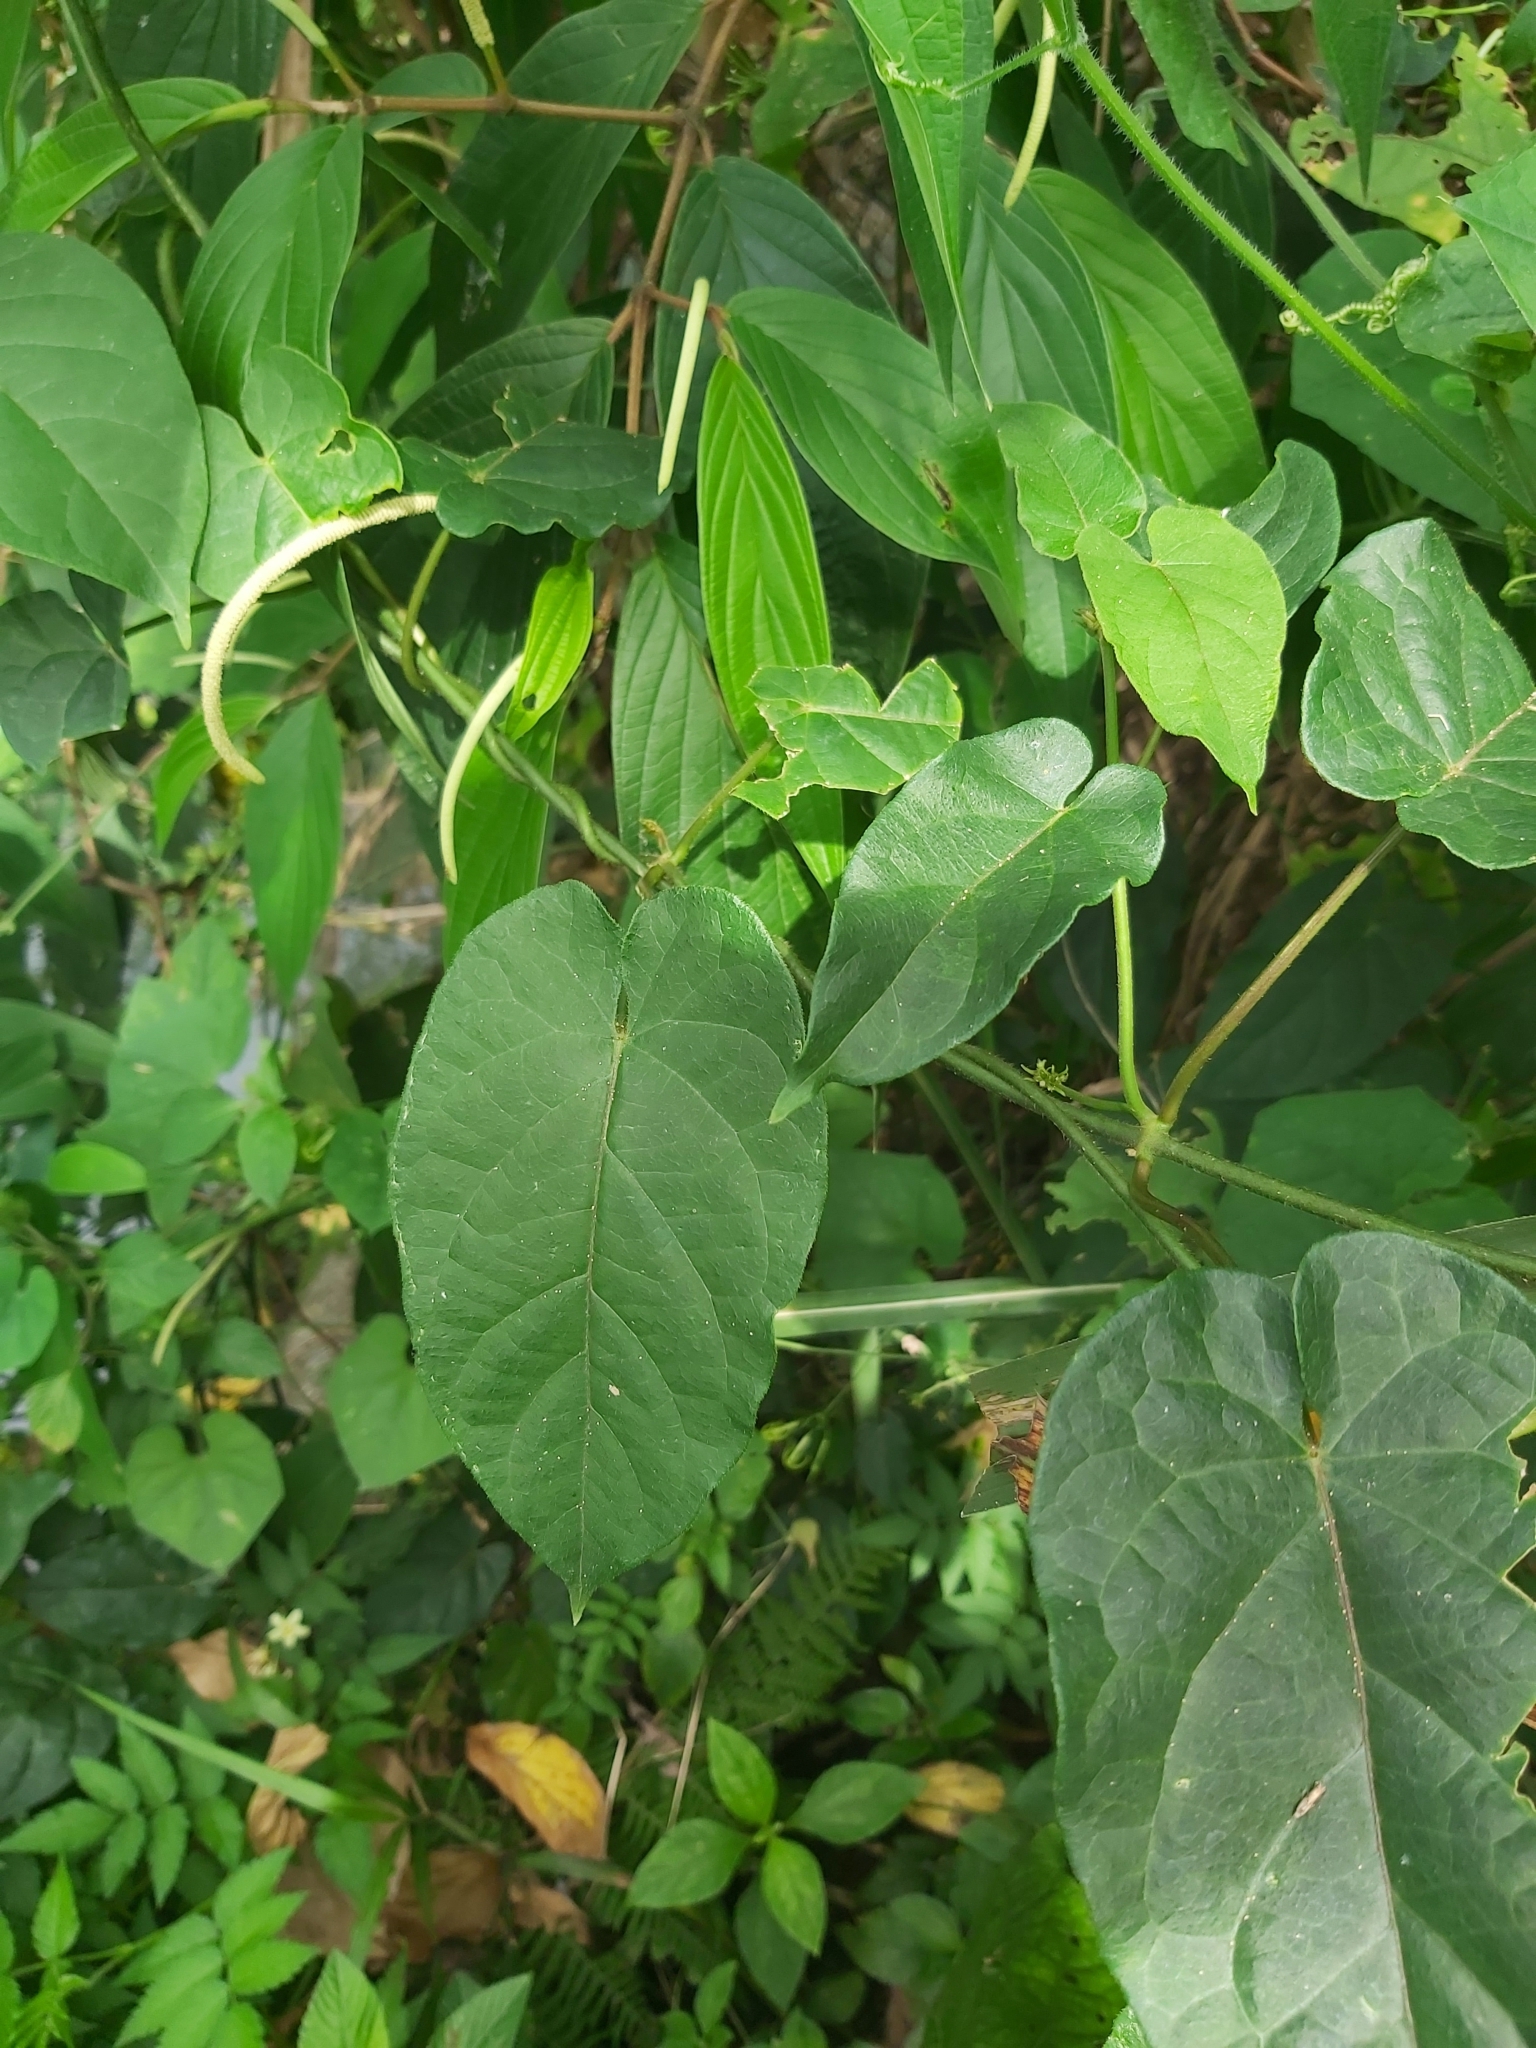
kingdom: Plantae
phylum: Tracheophyta
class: Magnoliopsida
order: Gentianales
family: Apocynaceae
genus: Gonolobus
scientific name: Gonolobus edulis
